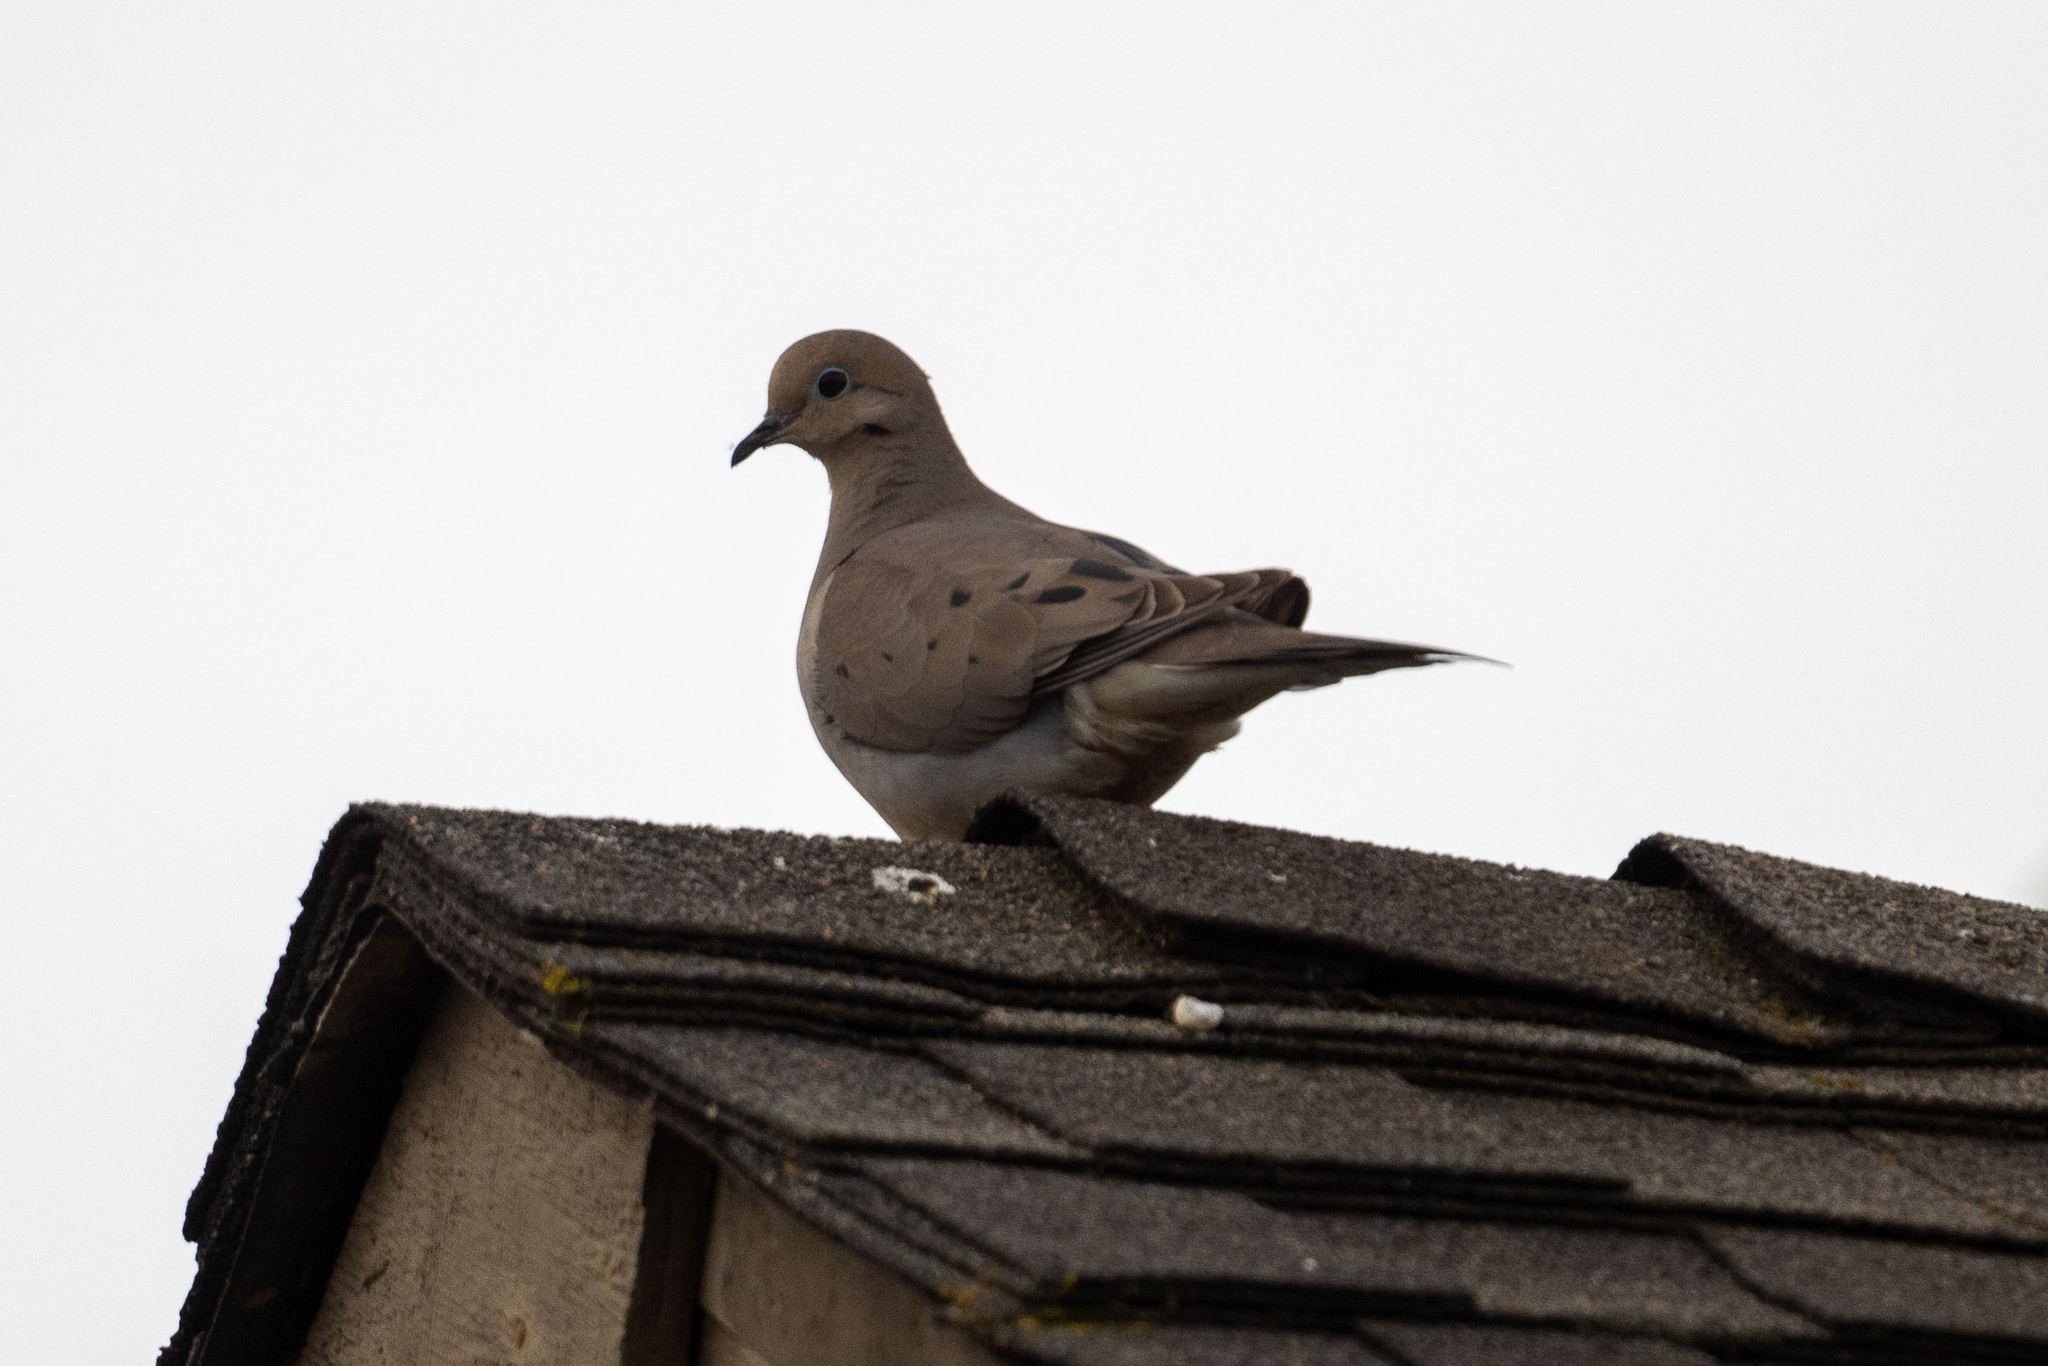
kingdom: Animalia
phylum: Chordata
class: Aves
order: Columbiformes
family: Columbidae
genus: Zenaida
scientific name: Zenaida macroura
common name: Mourning dove
